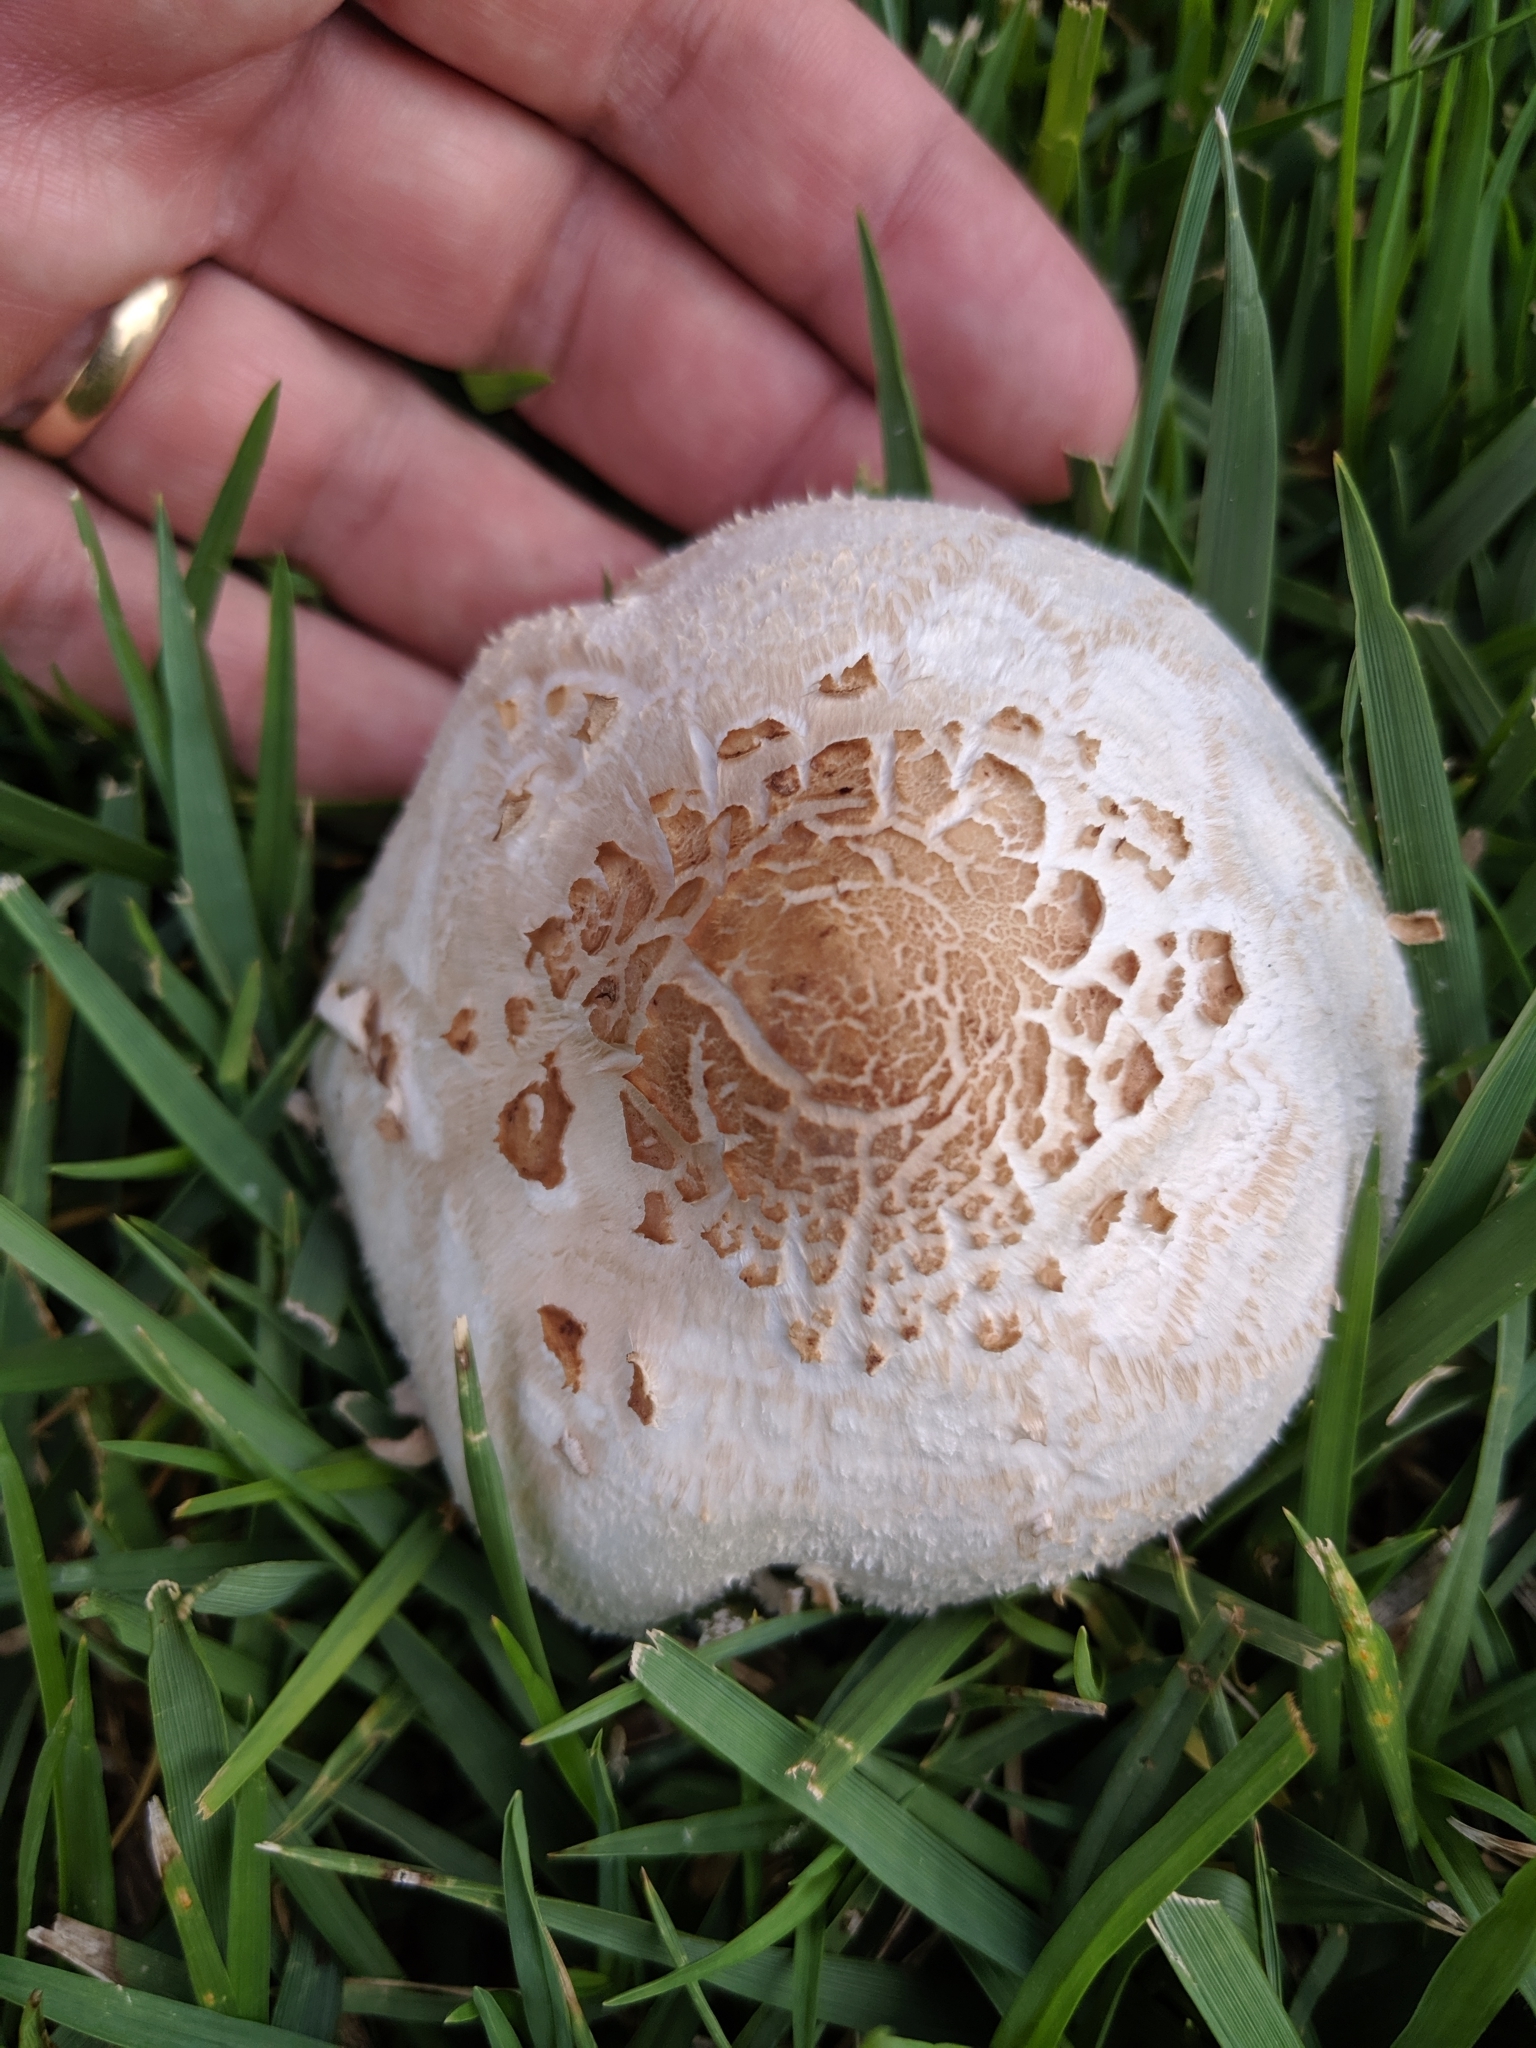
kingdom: Fungi
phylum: Basidiomycota
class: Agaricomycetes
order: Agaricales
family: Agaricaceae
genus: Chlorophyllum
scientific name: Chlorophyllum molybdites
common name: False parasol
